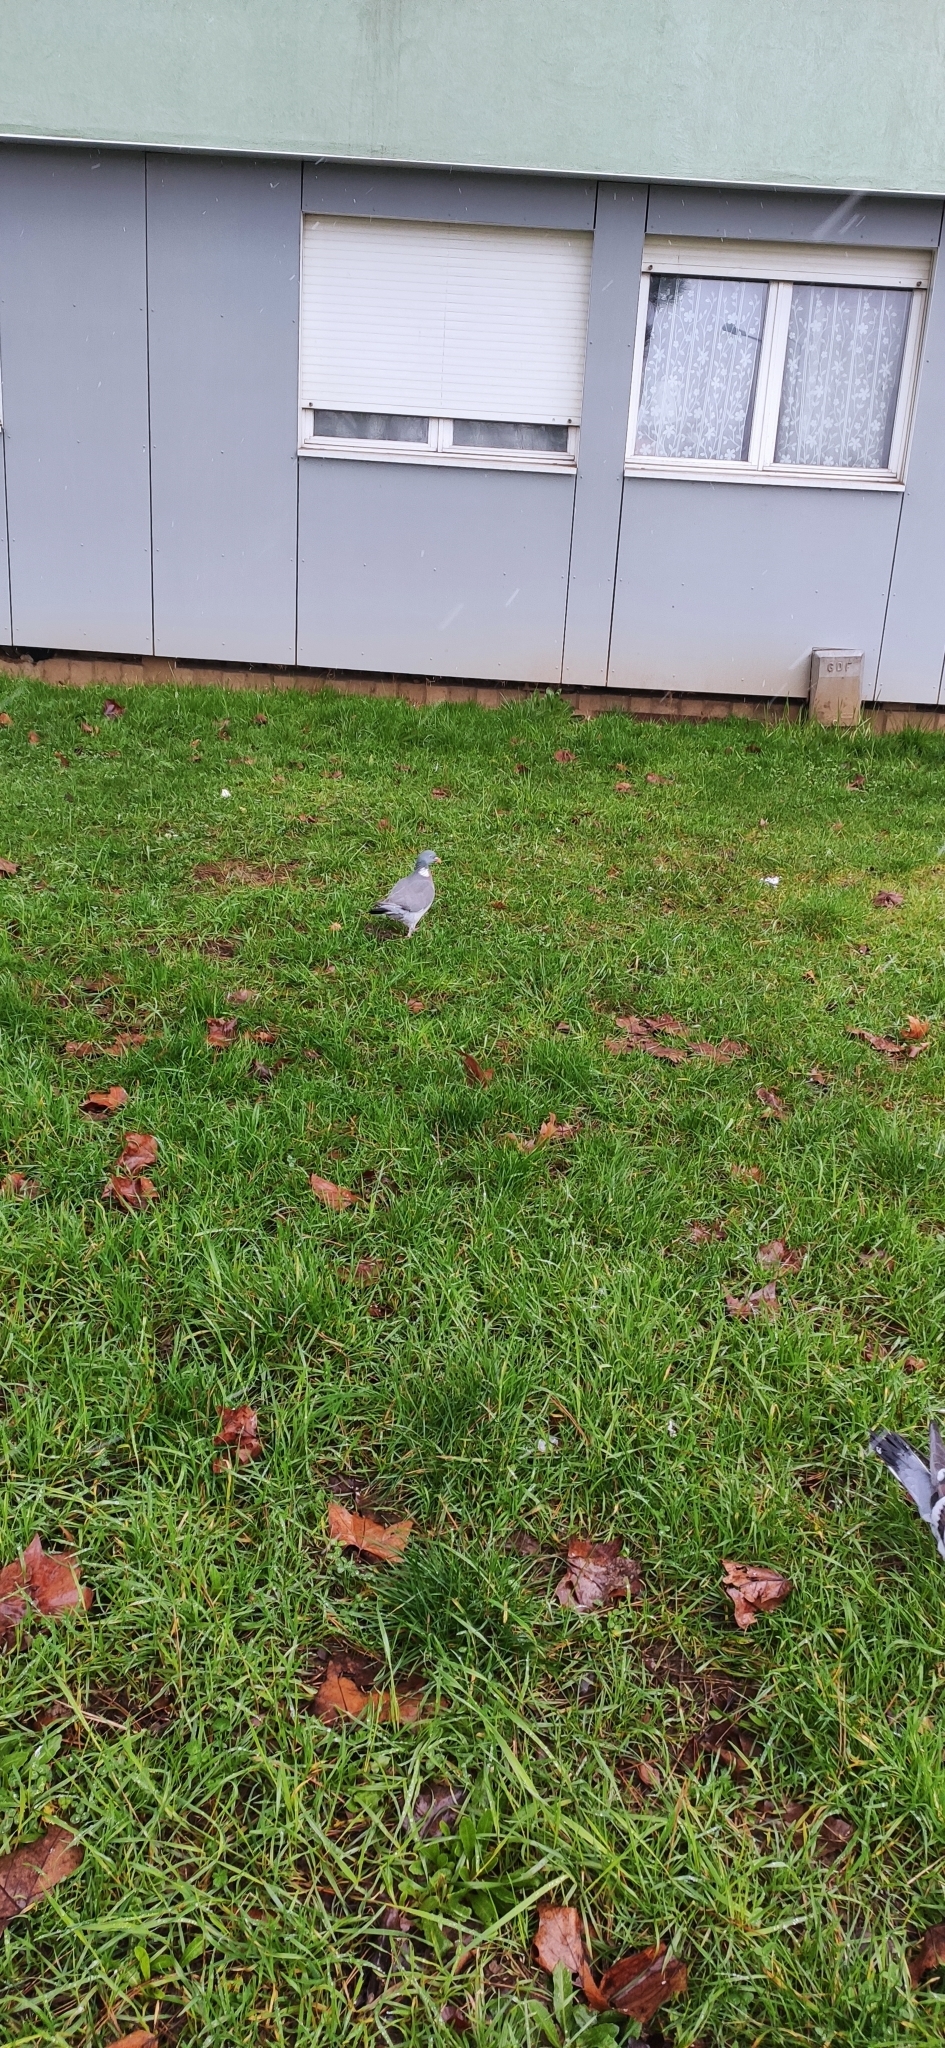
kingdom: Animalia
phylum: Chordata
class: Aves
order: Columbiformes
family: Columbidae
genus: Columba
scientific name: Columba palumbus
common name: Common wood pigeon
